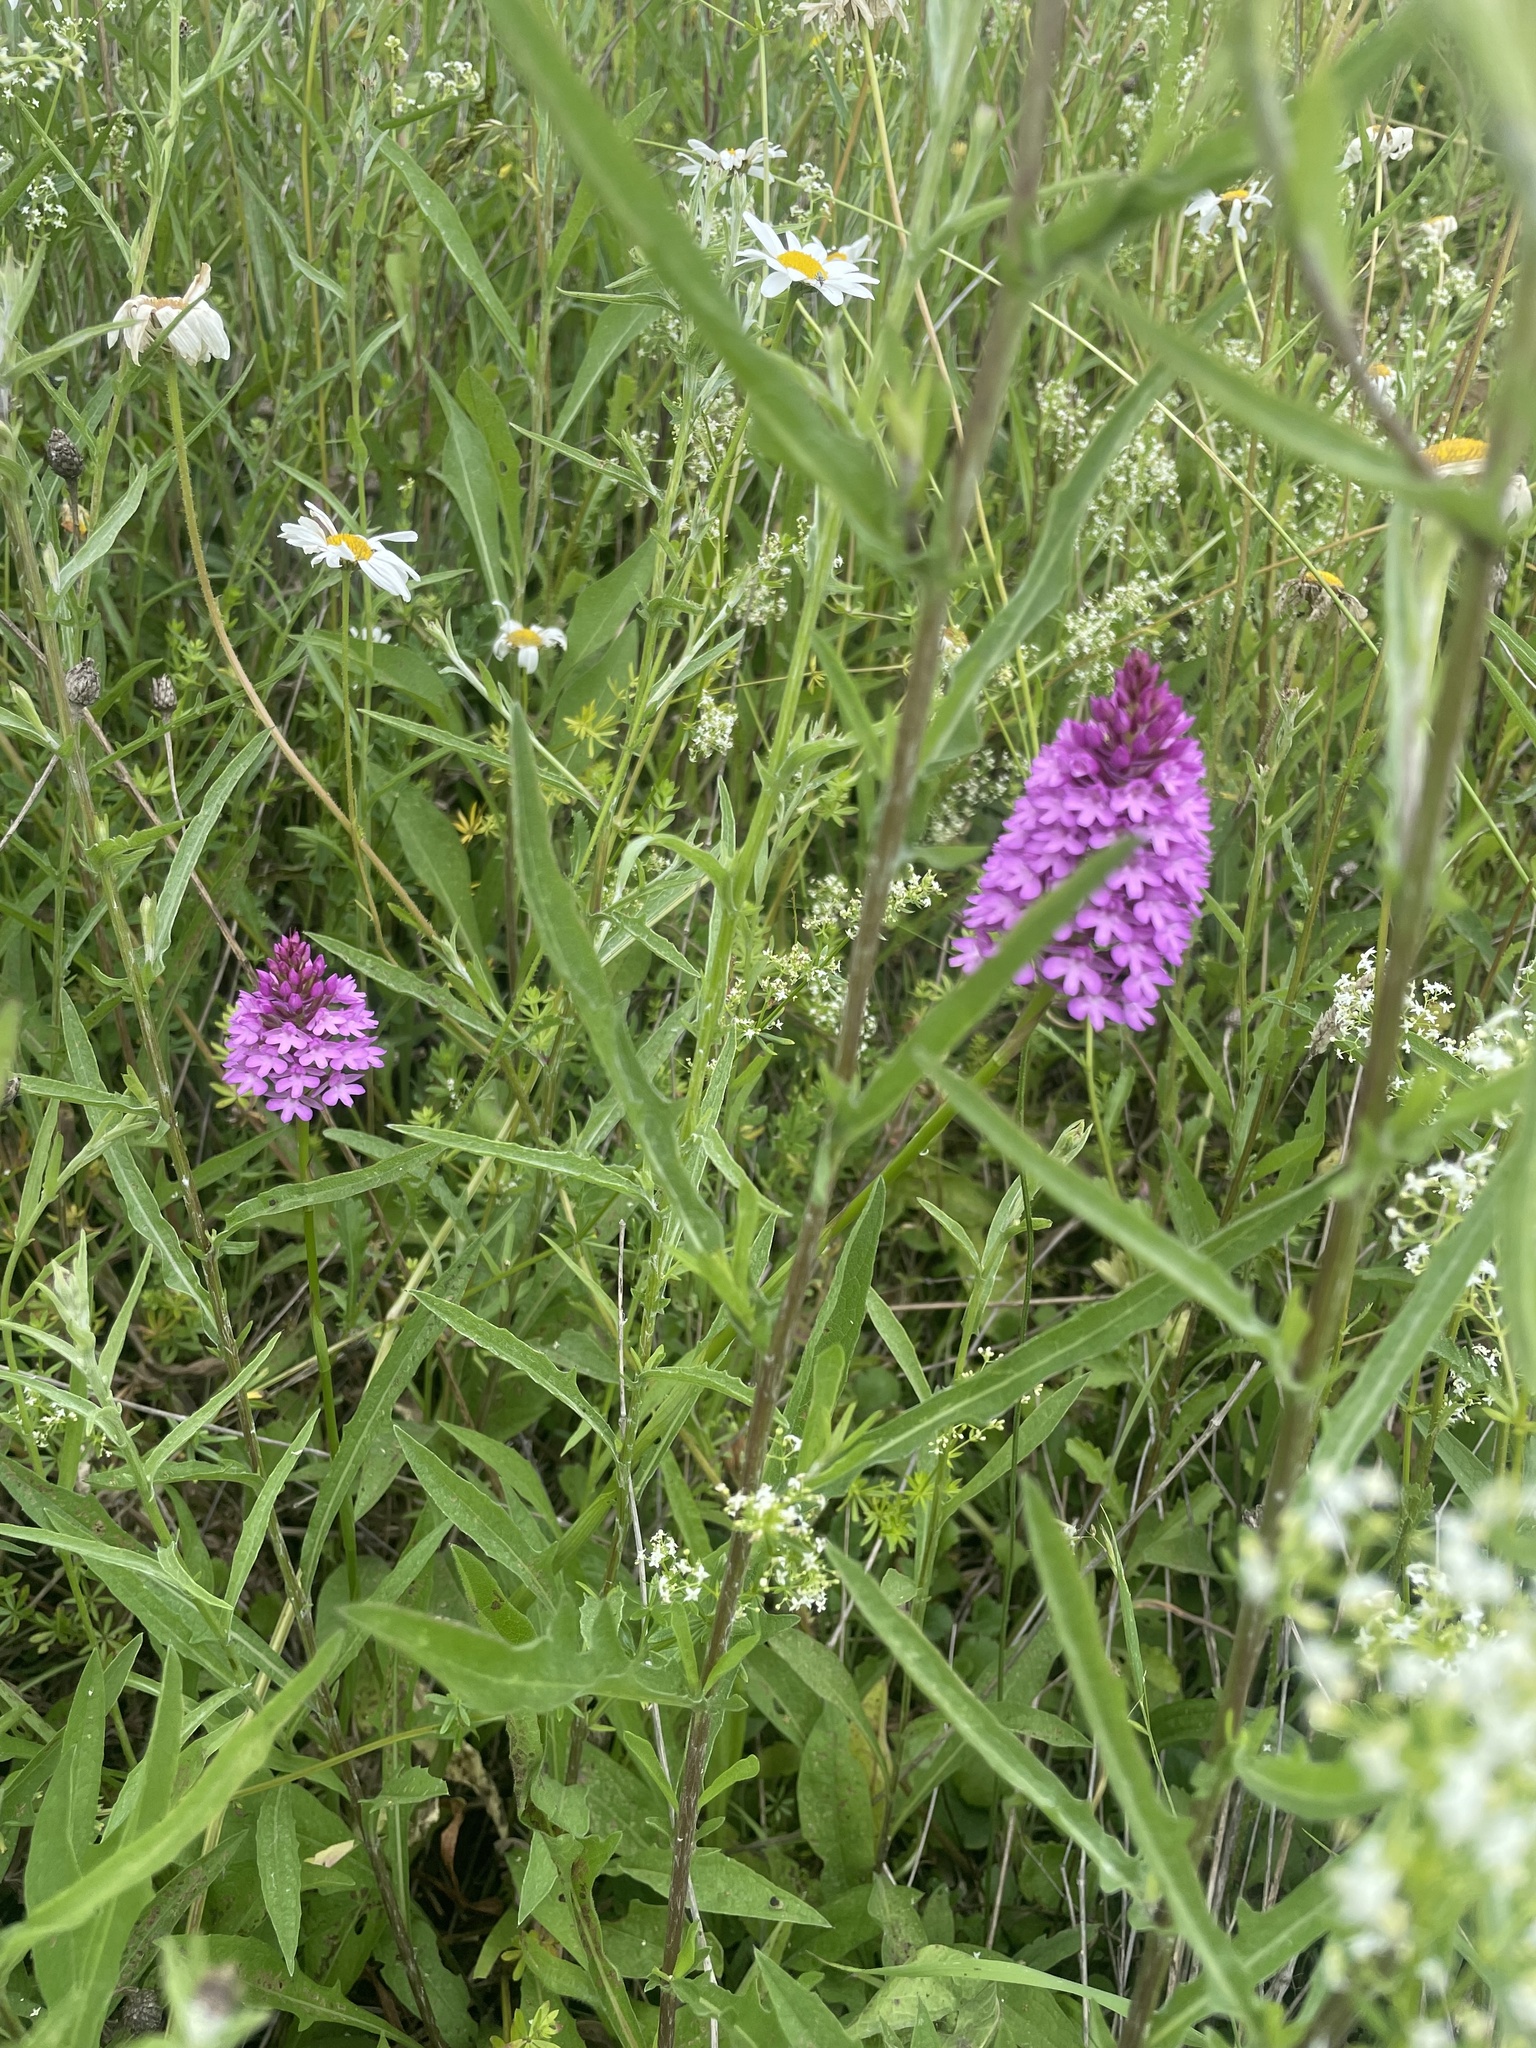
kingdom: Plantae
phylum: Tracheophyta
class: Liliopsida
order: Asparagales
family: Orchidaceae
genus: Anacamptis
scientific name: Anacamptis pyramidalis
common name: Pyramidal orchid
